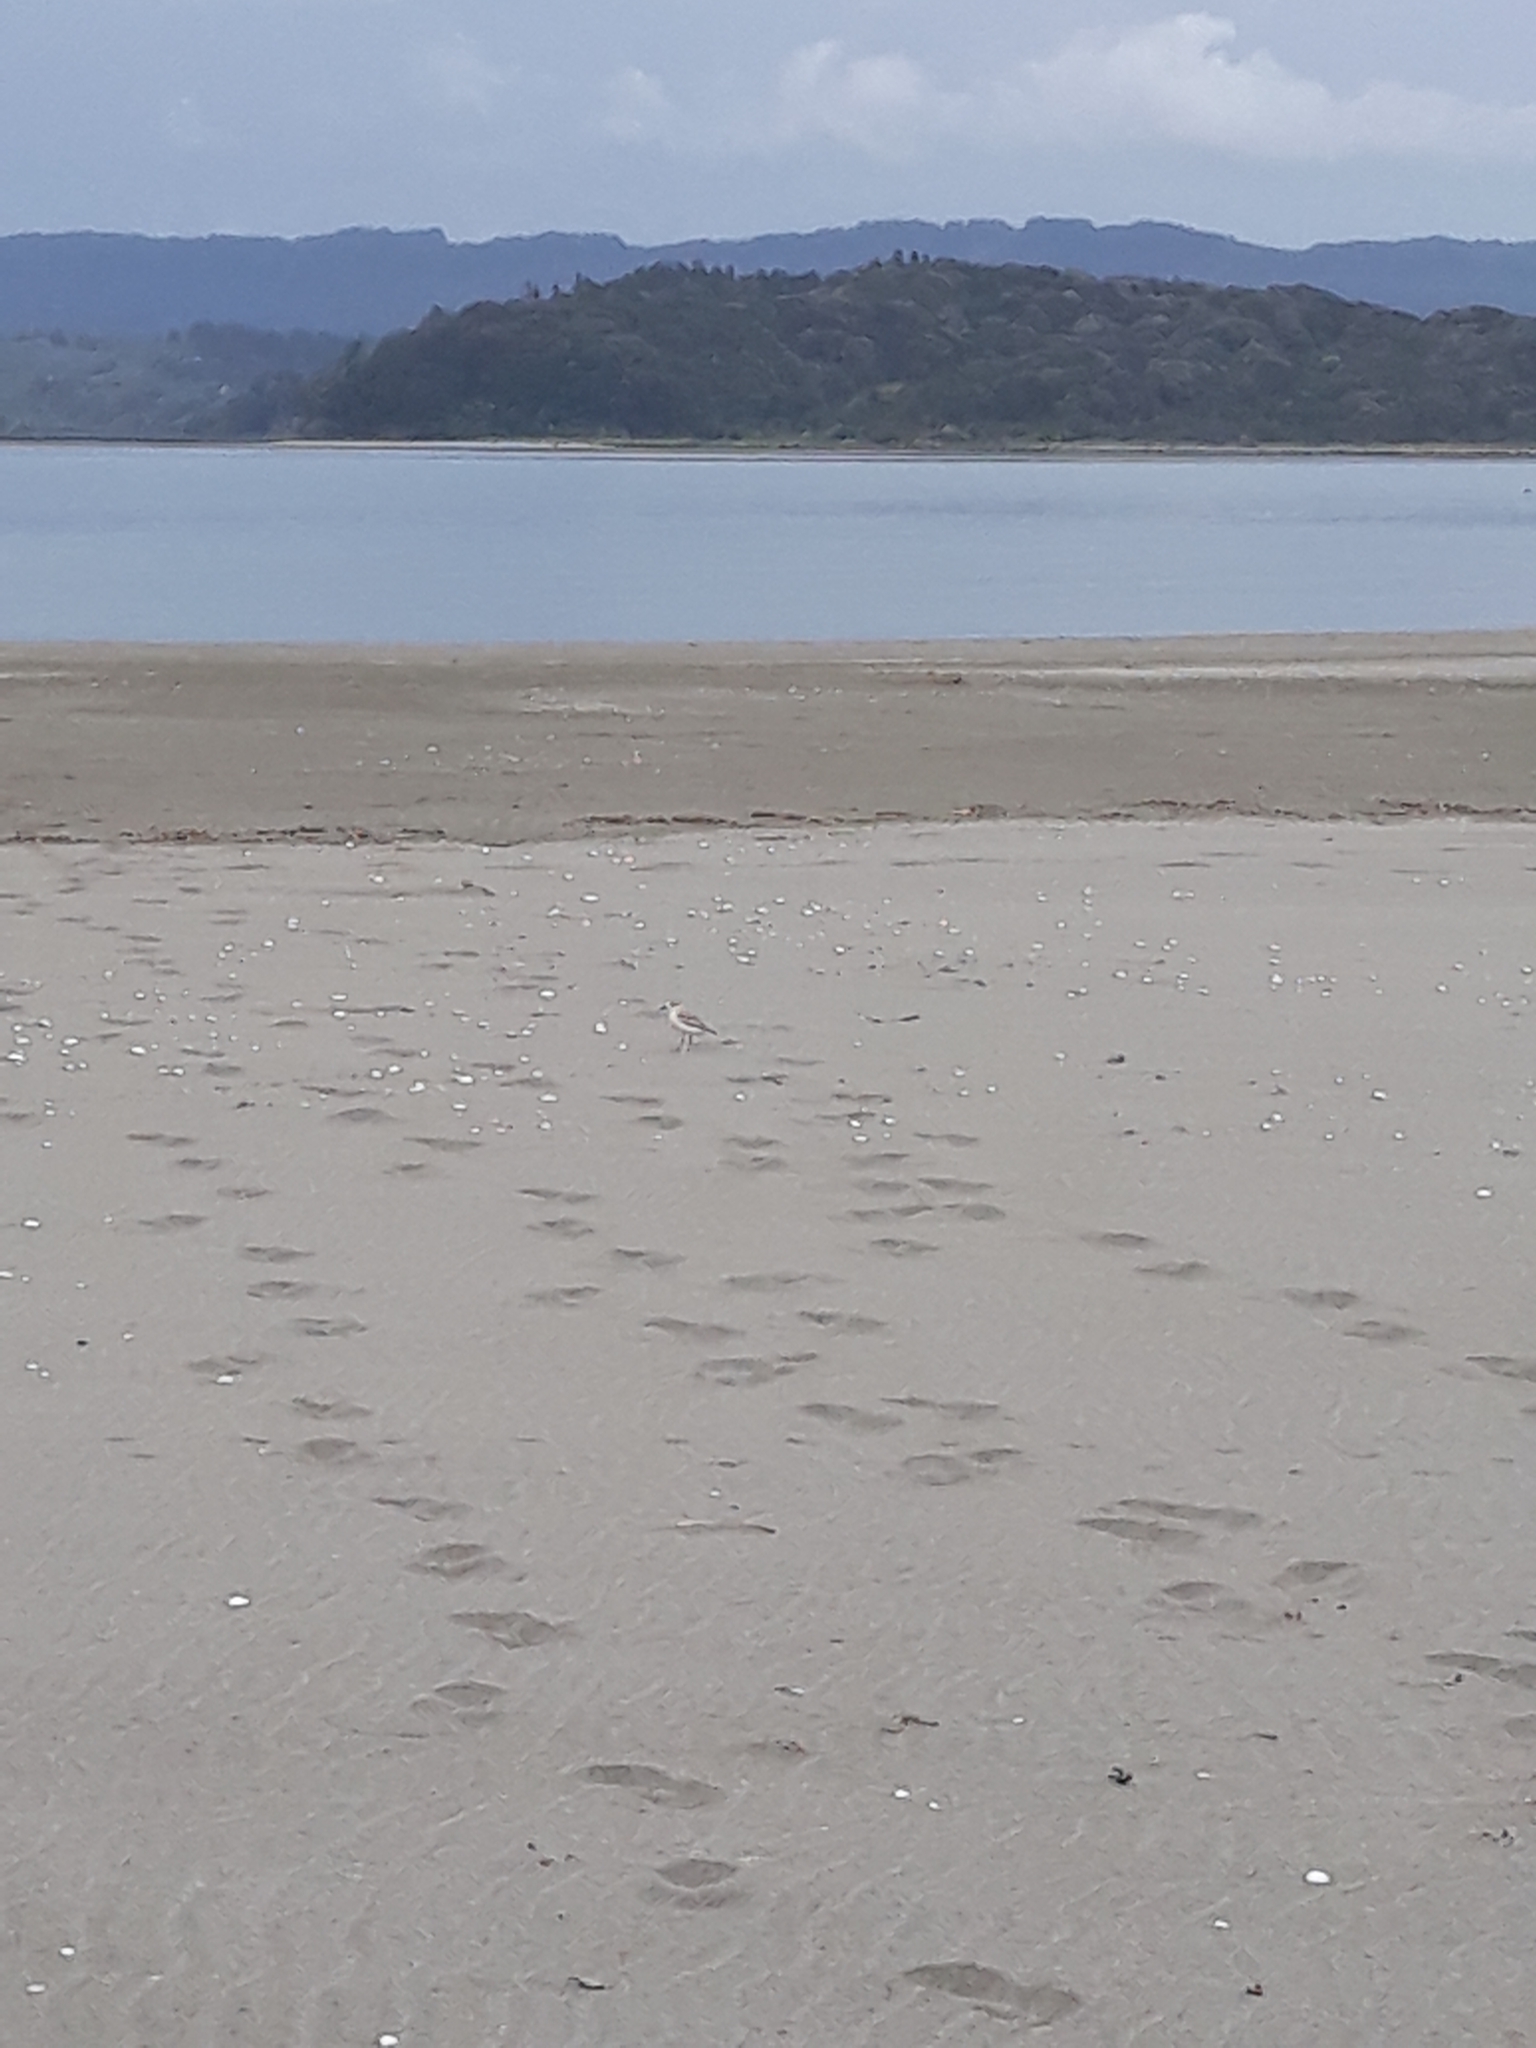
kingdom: Animalia
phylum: Chordata
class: Aves
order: Charadriiformes
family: Charadriidae
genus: Anarhynchus
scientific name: Anarhynchus
